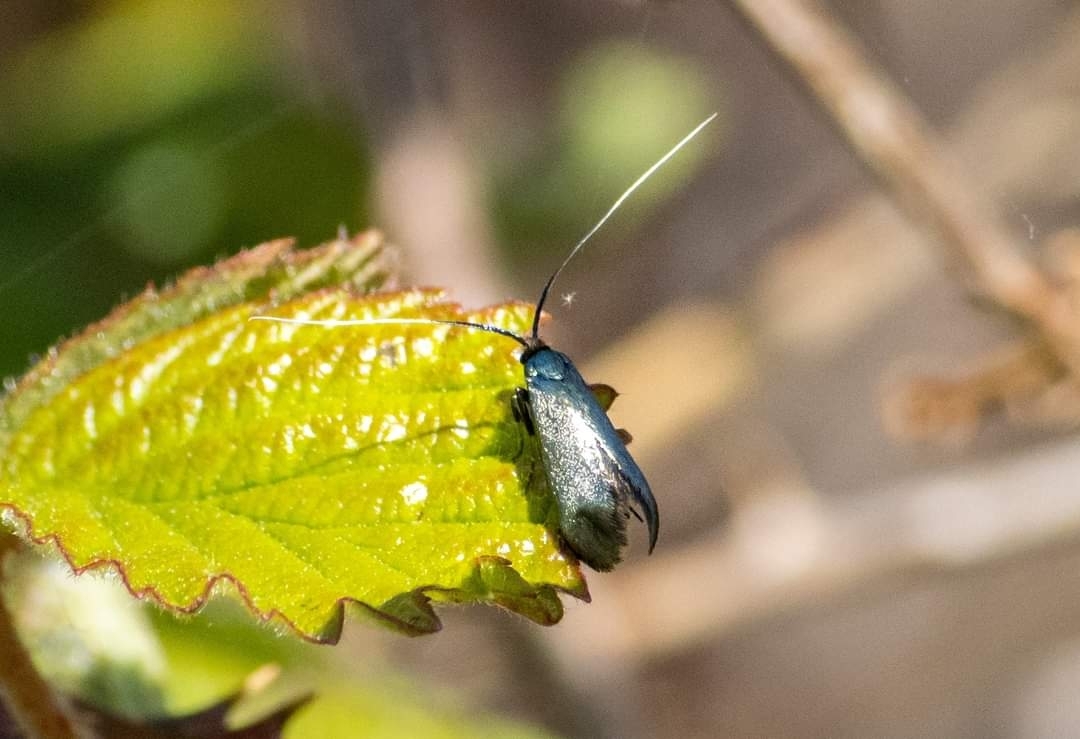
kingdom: Animalia
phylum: Arthropoda
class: Insecta
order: Lepidoptera
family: Adelidae
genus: Adela
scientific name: Adela viridella
